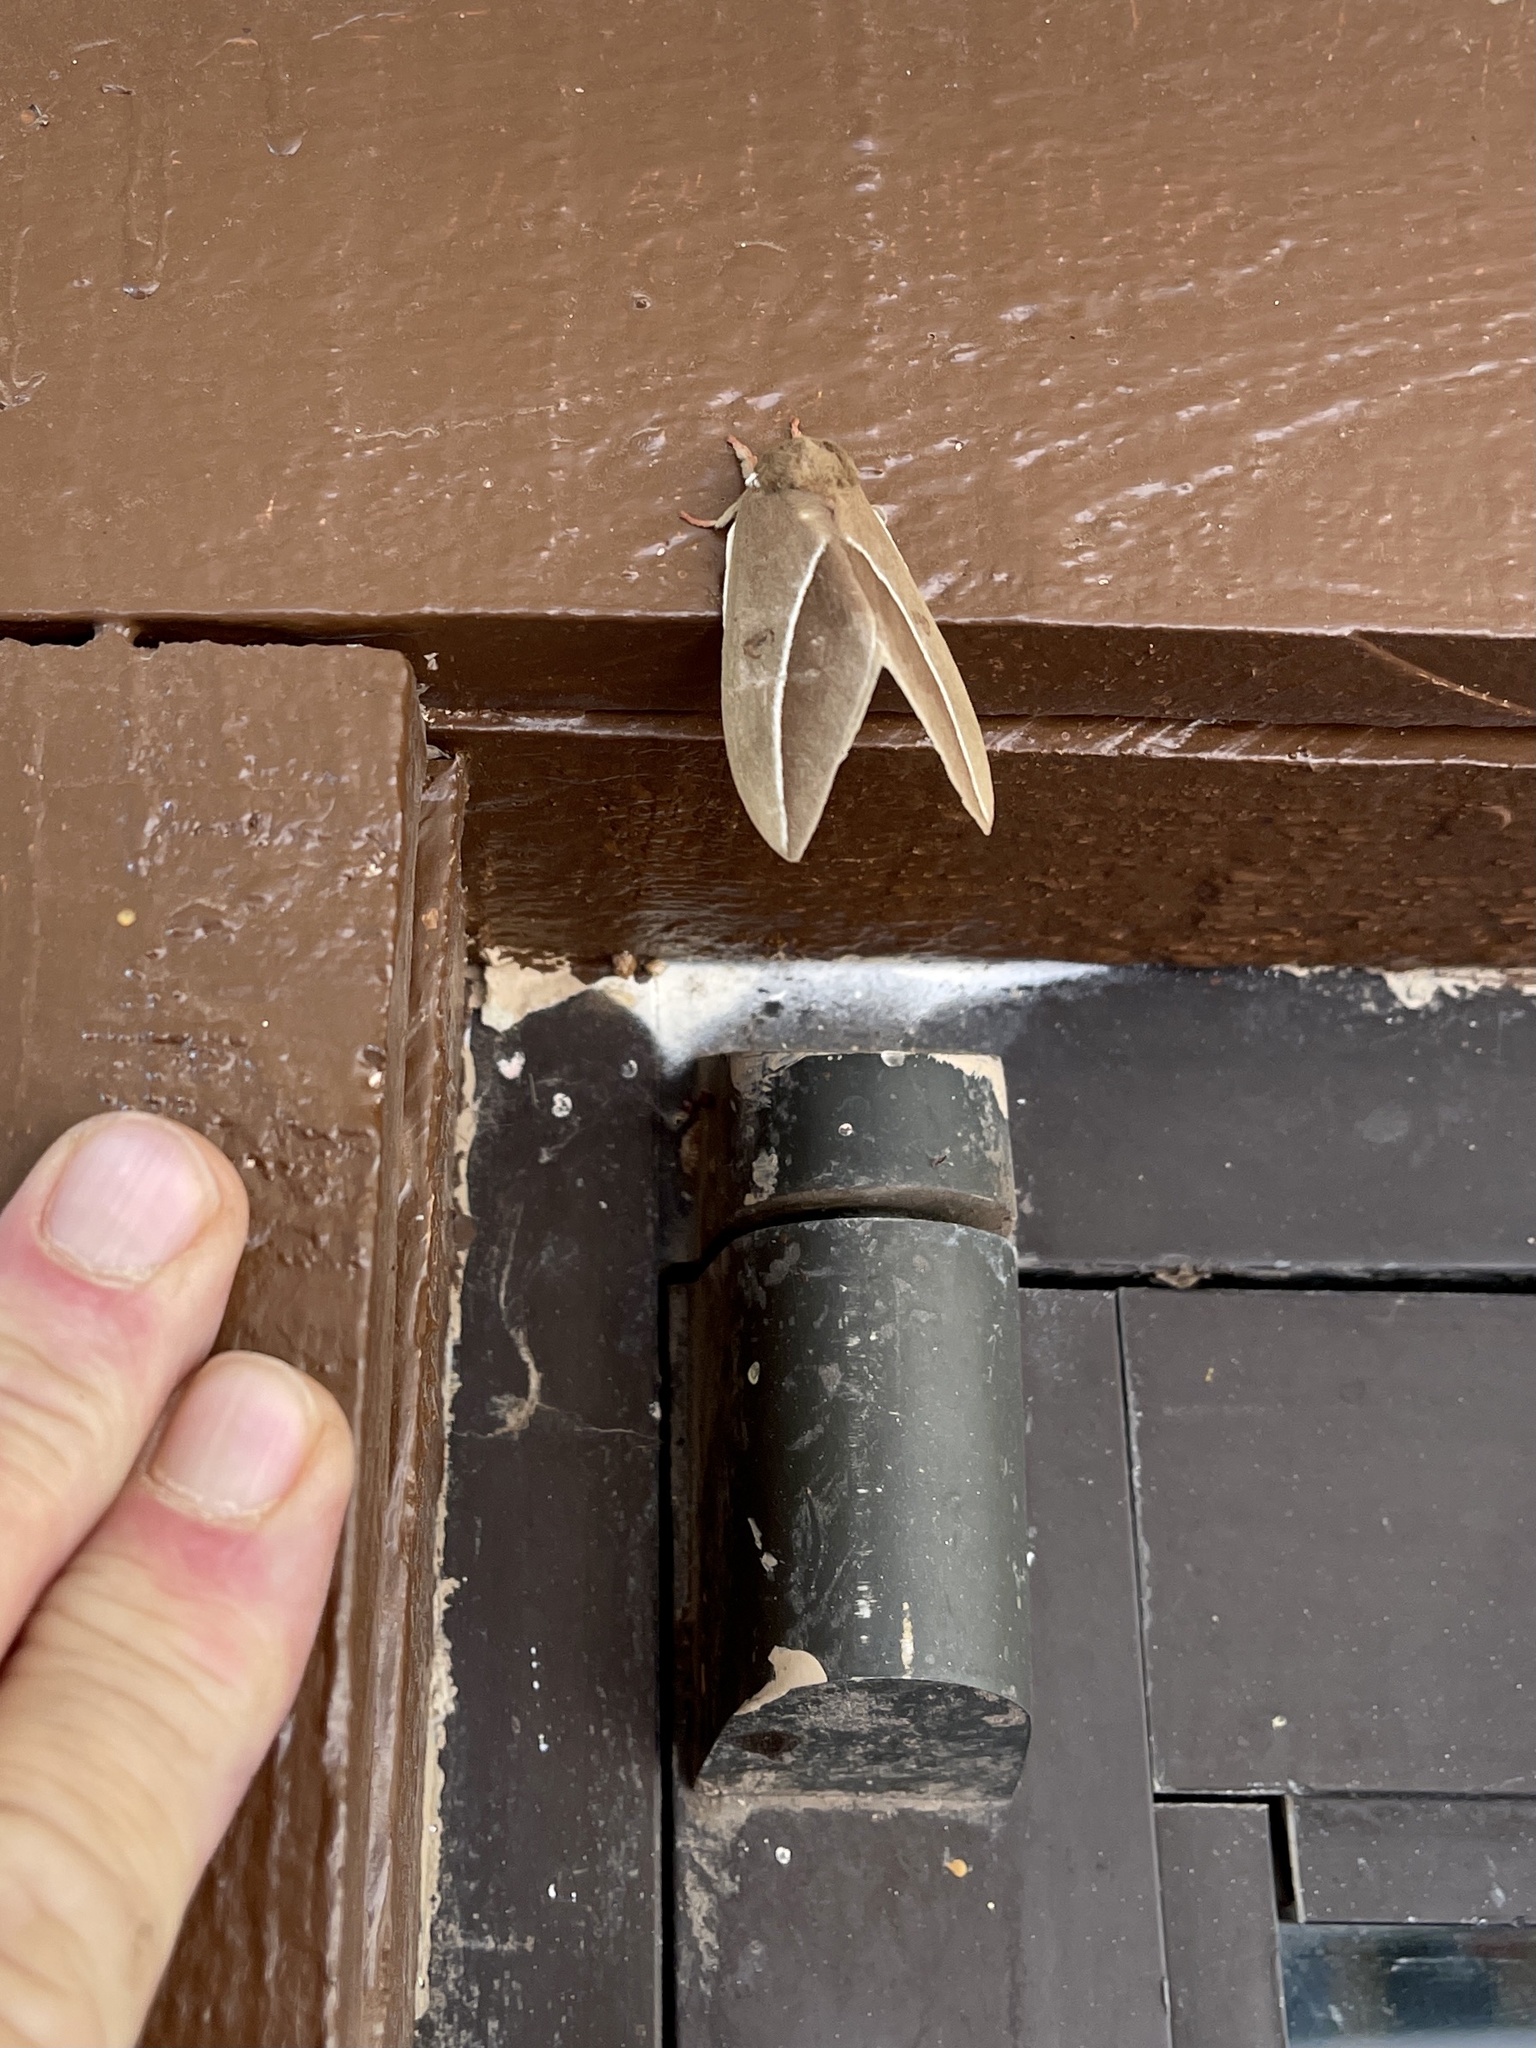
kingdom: Animalia
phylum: Arthropoda
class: Insecta
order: Lepidoptera
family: Saturniidae
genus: Automeris
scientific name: Automeris zephyria
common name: Zephyr eyed silkmoth
